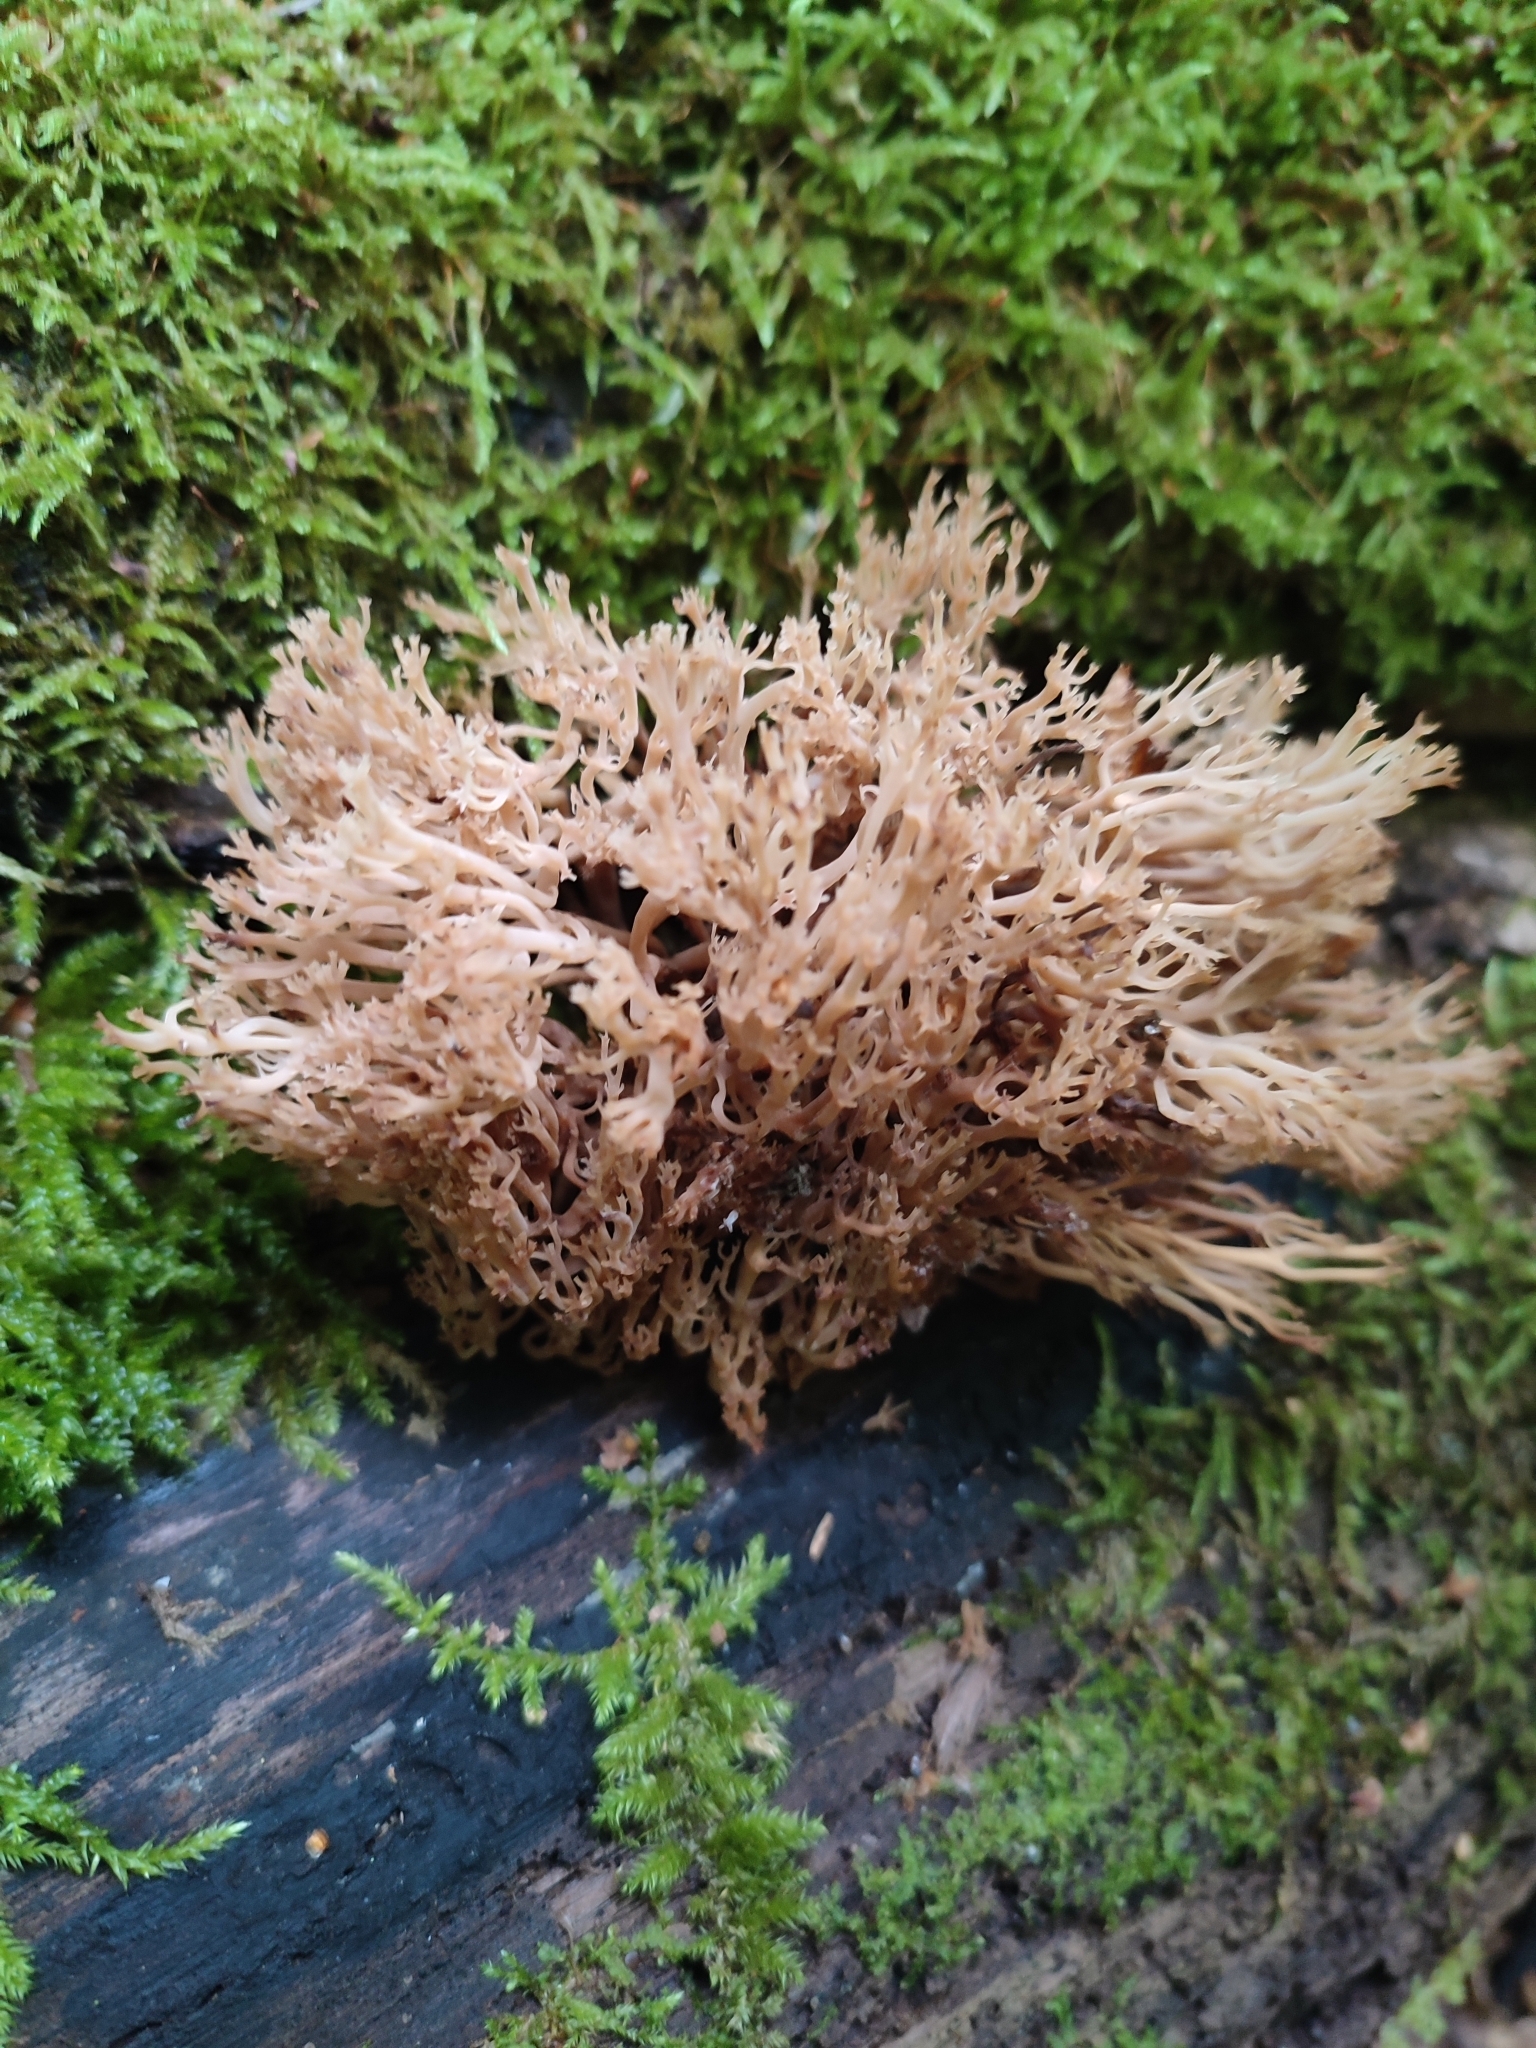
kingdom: Fungi
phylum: Basidiomycota
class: Agaricomycetes
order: Russulales
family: Auriscalpiaceae
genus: Artomyces
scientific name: Artomyces pyxidatus
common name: Crown-tipped coral fungus
